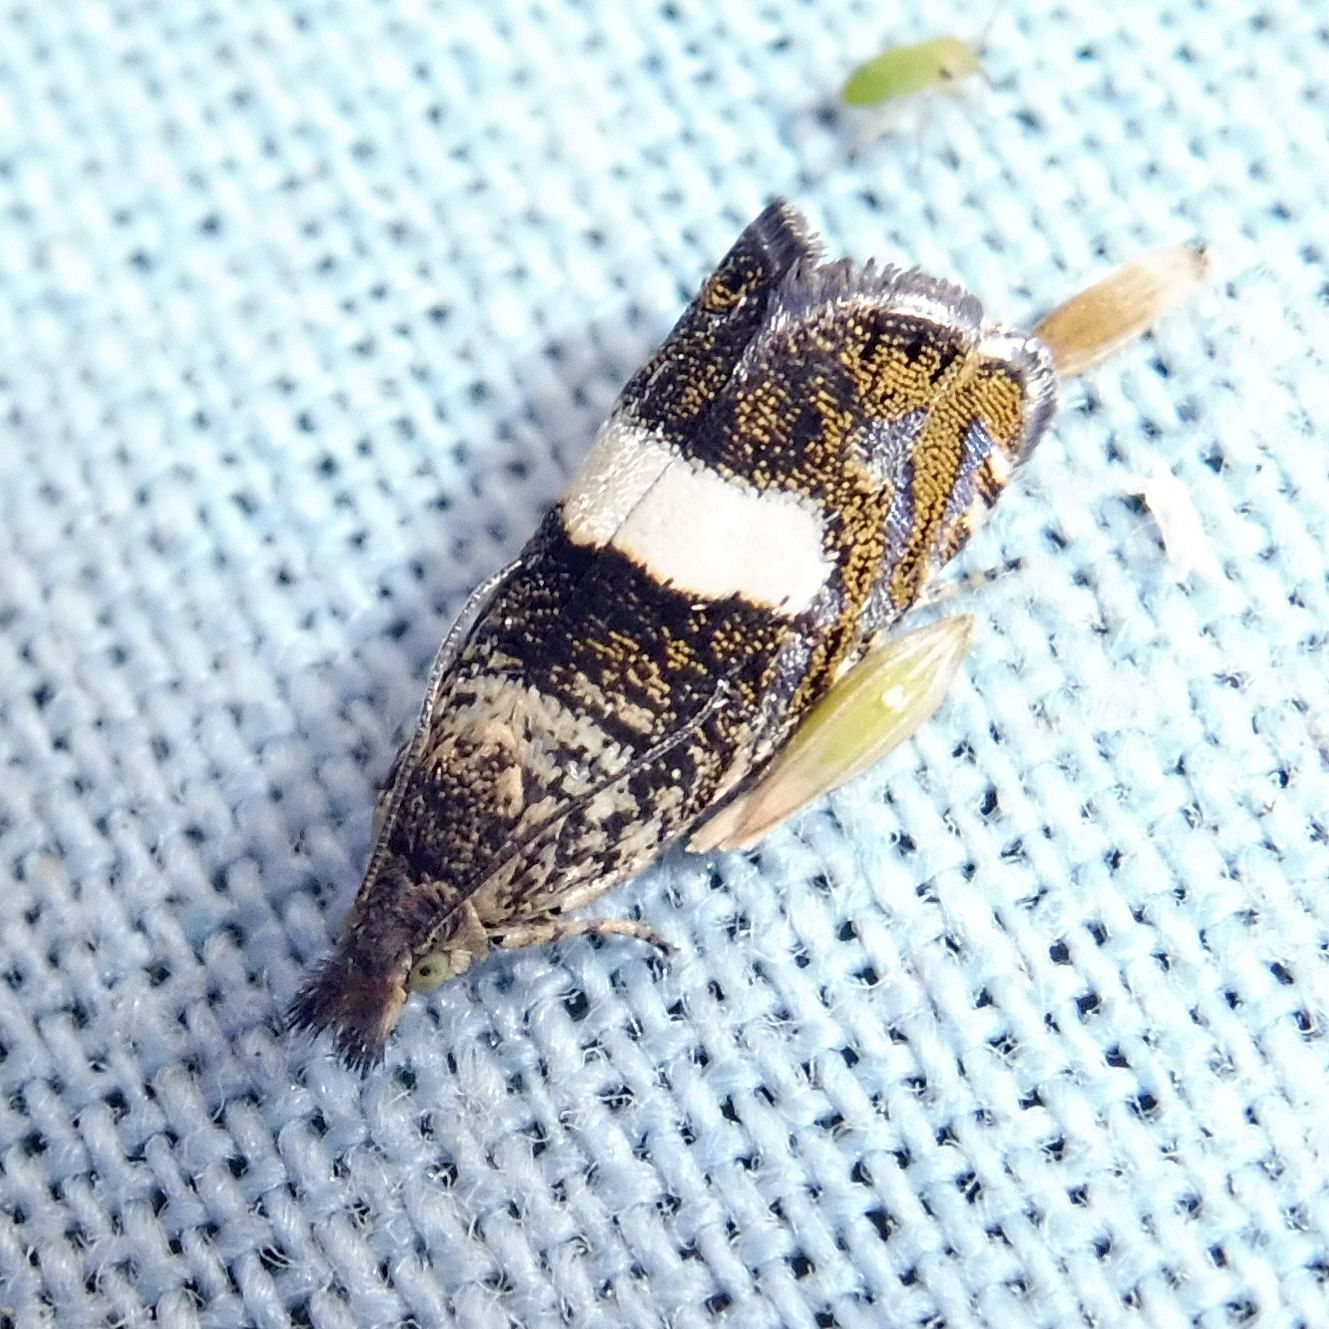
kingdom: Animalia
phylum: Arthropoda
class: Insecta
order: Lepidoptera
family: Tortricidae
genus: Dichrorampha
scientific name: Dichrorampha sequana
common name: Square-spot drill
